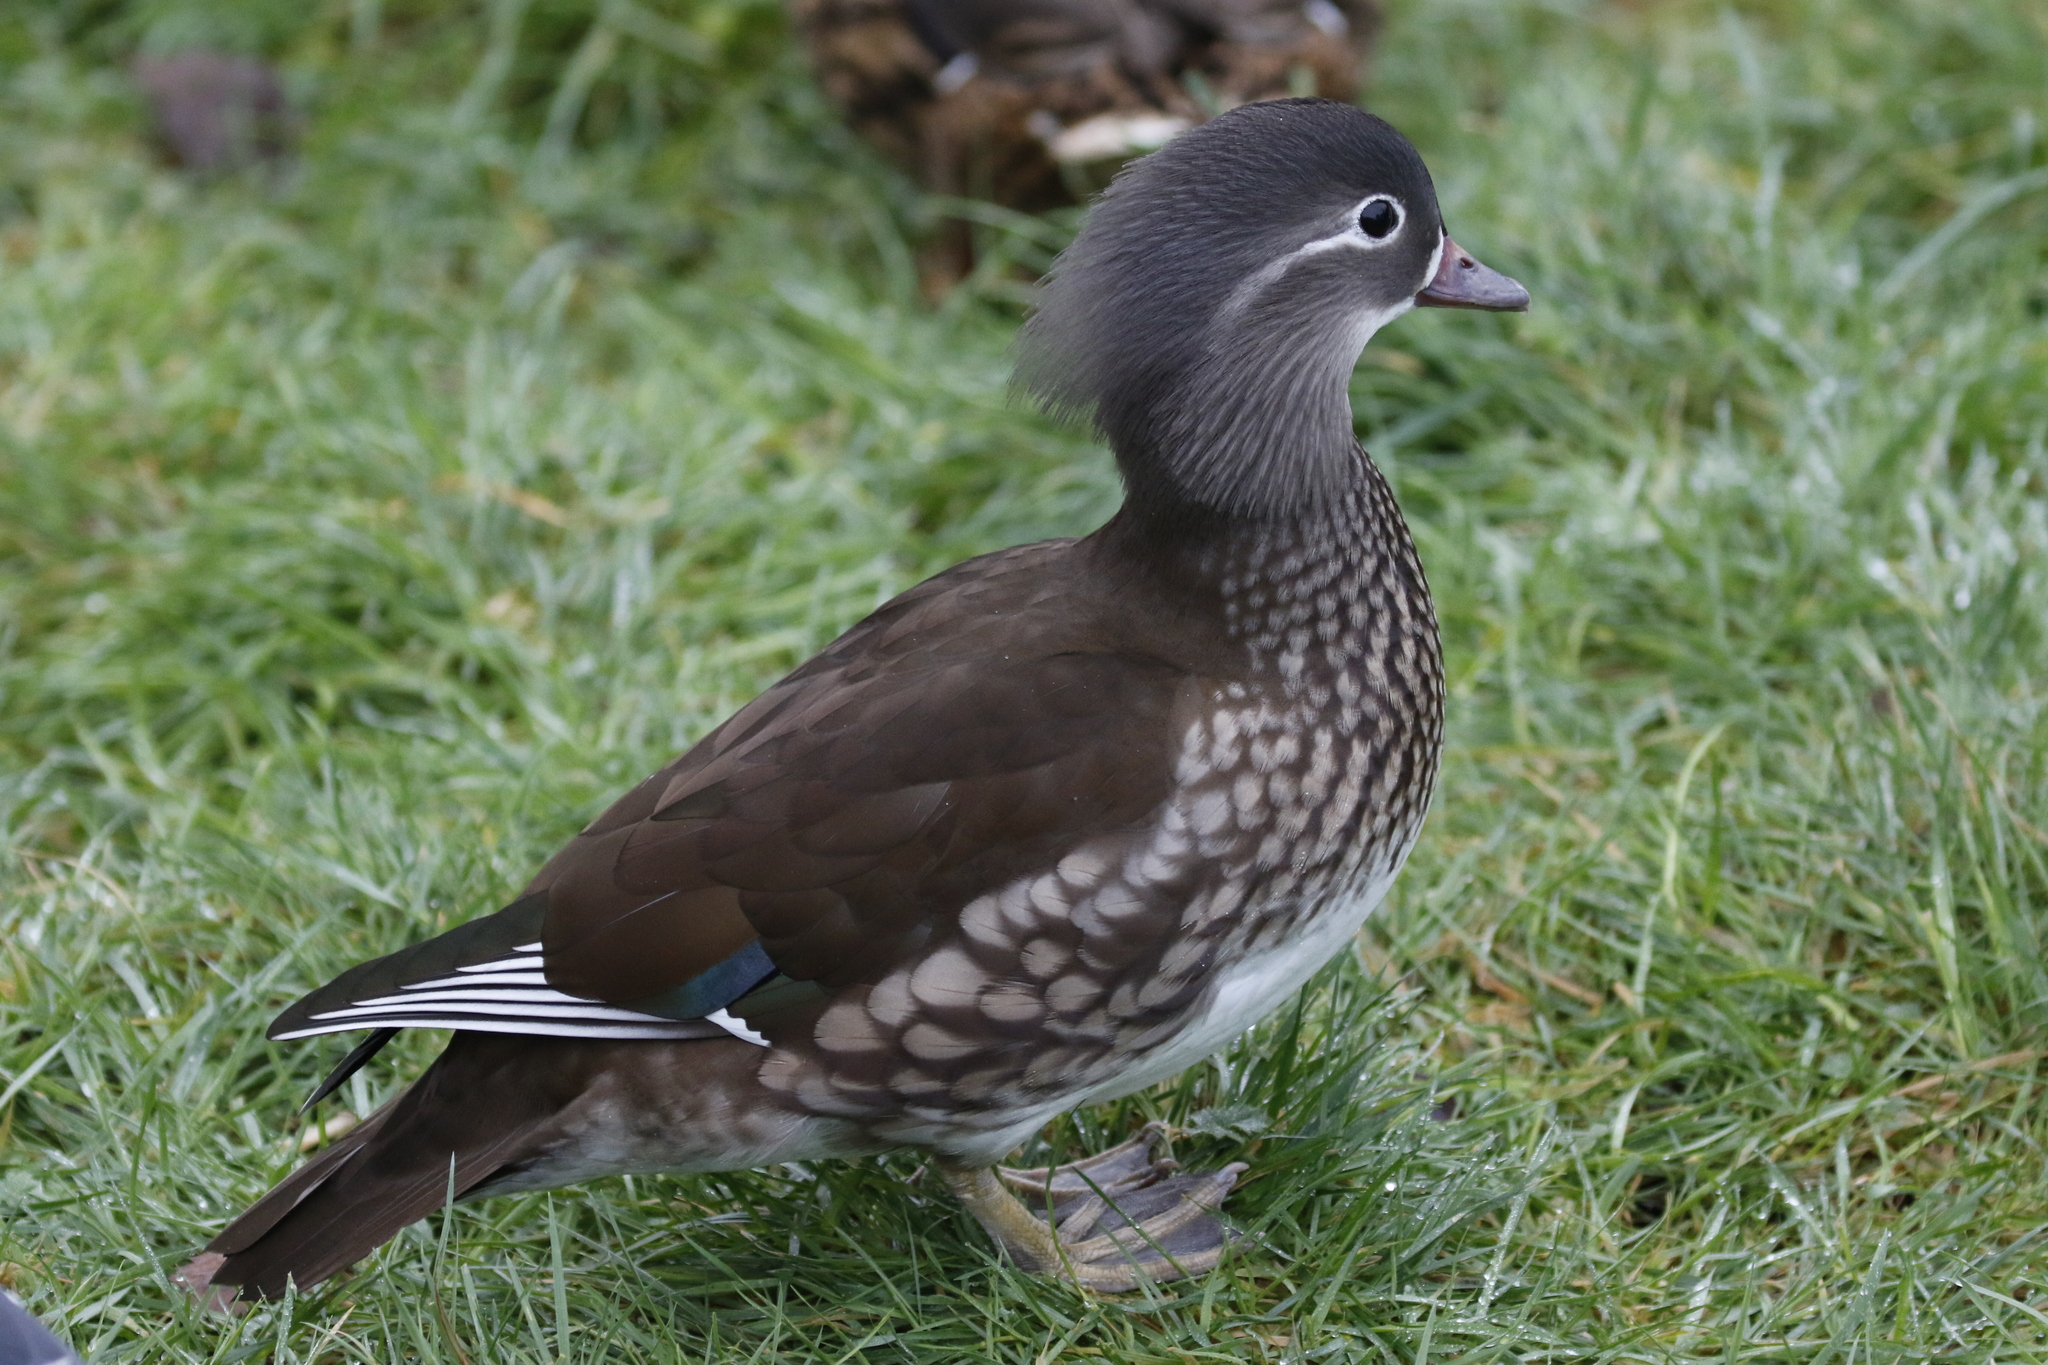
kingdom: Animalia
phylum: Chordata
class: Aves
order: Anseriformes
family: Anatidae
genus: Aix
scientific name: Aix galericulata
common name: Mandarin duck
